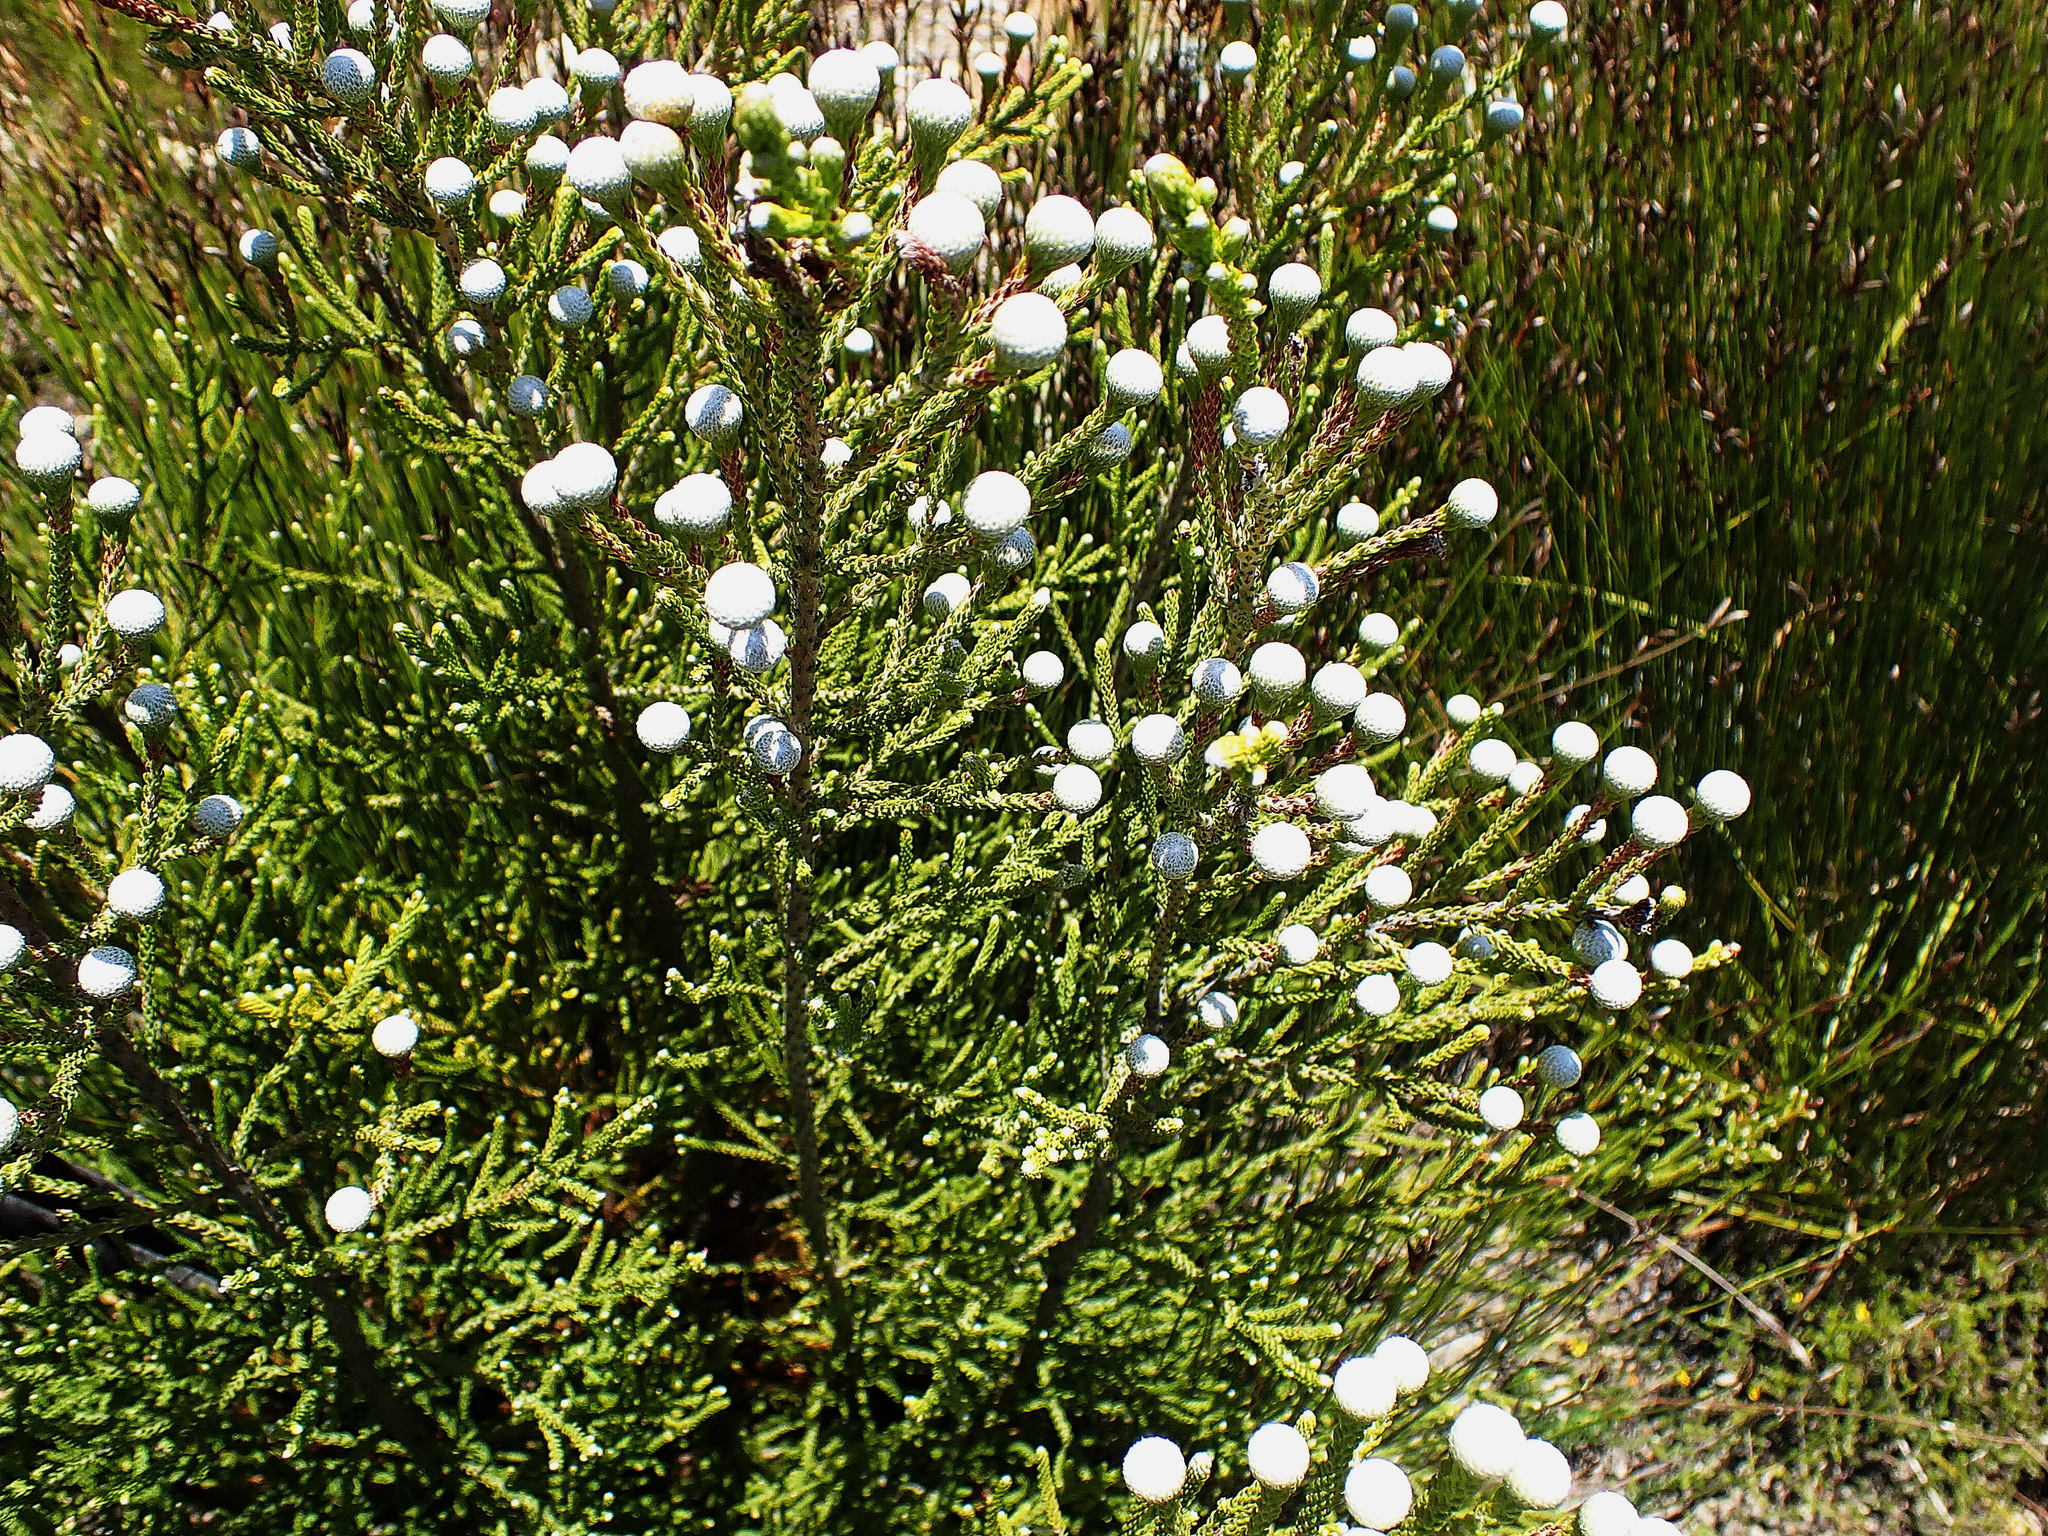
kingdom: Plantae
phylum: Tracheophyta
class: Magnoliopsida
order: Bruniales
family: Bruniaceae
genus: Brunia
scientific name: Brunia noduliflora
